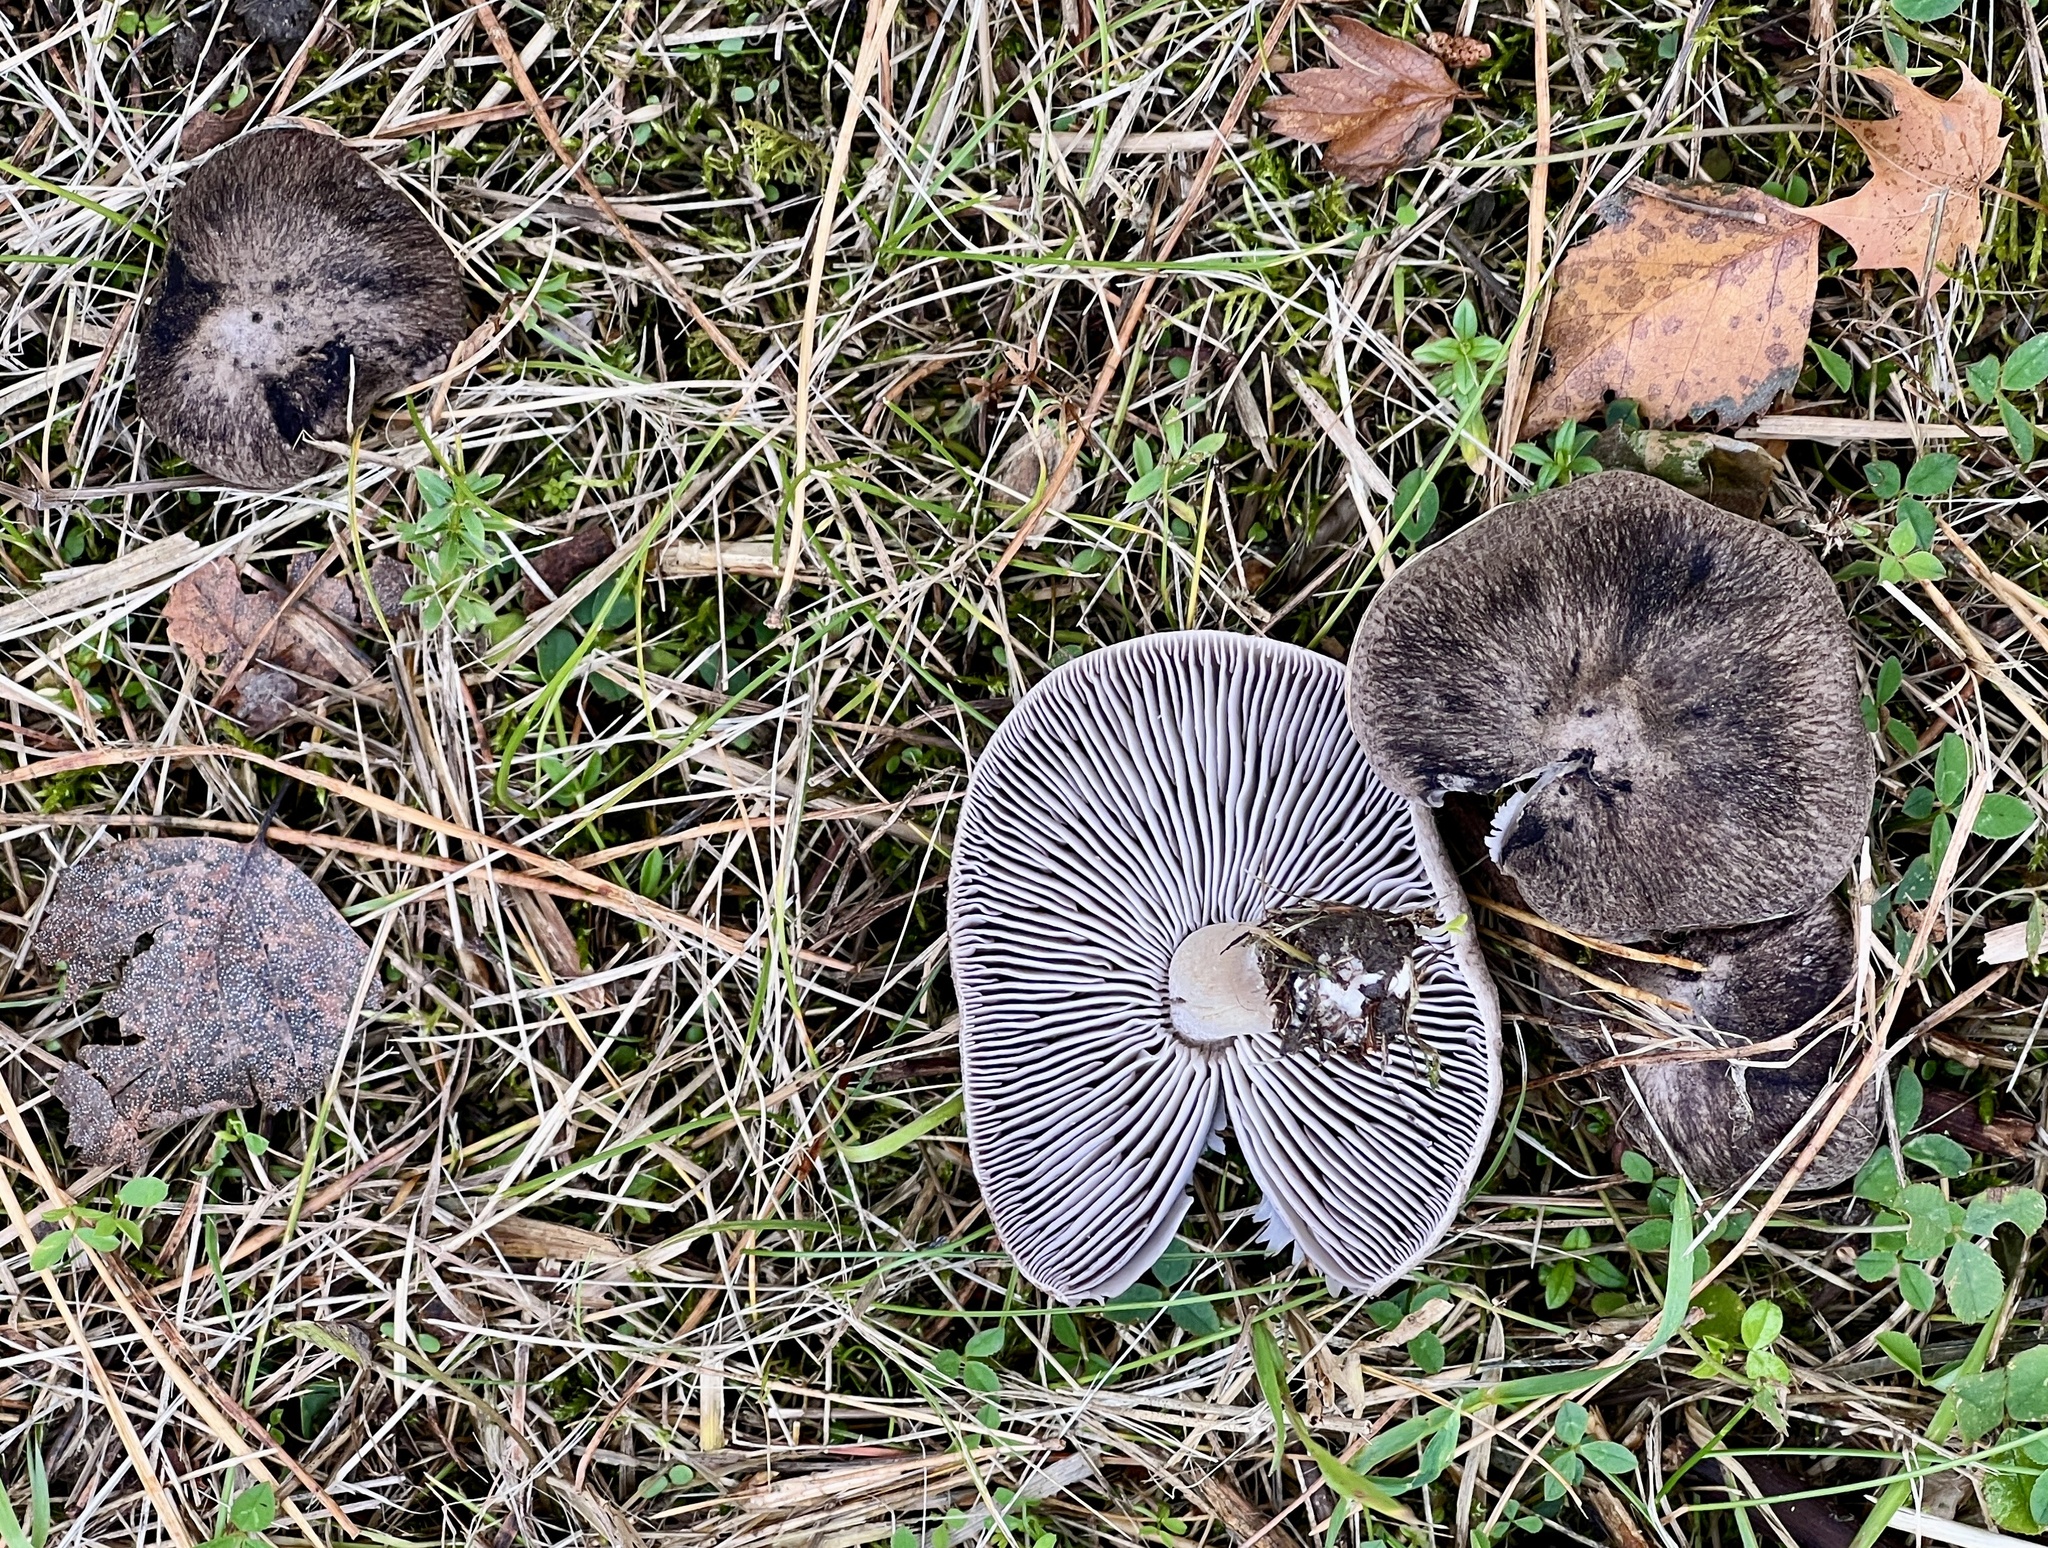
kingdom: Fungi
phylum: Basidiomycota
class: Agaricomycetes
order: Agaricales
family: Tricholomataceae
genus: Tricholoma
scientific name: Tricholoma terreum
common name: Grey knight
